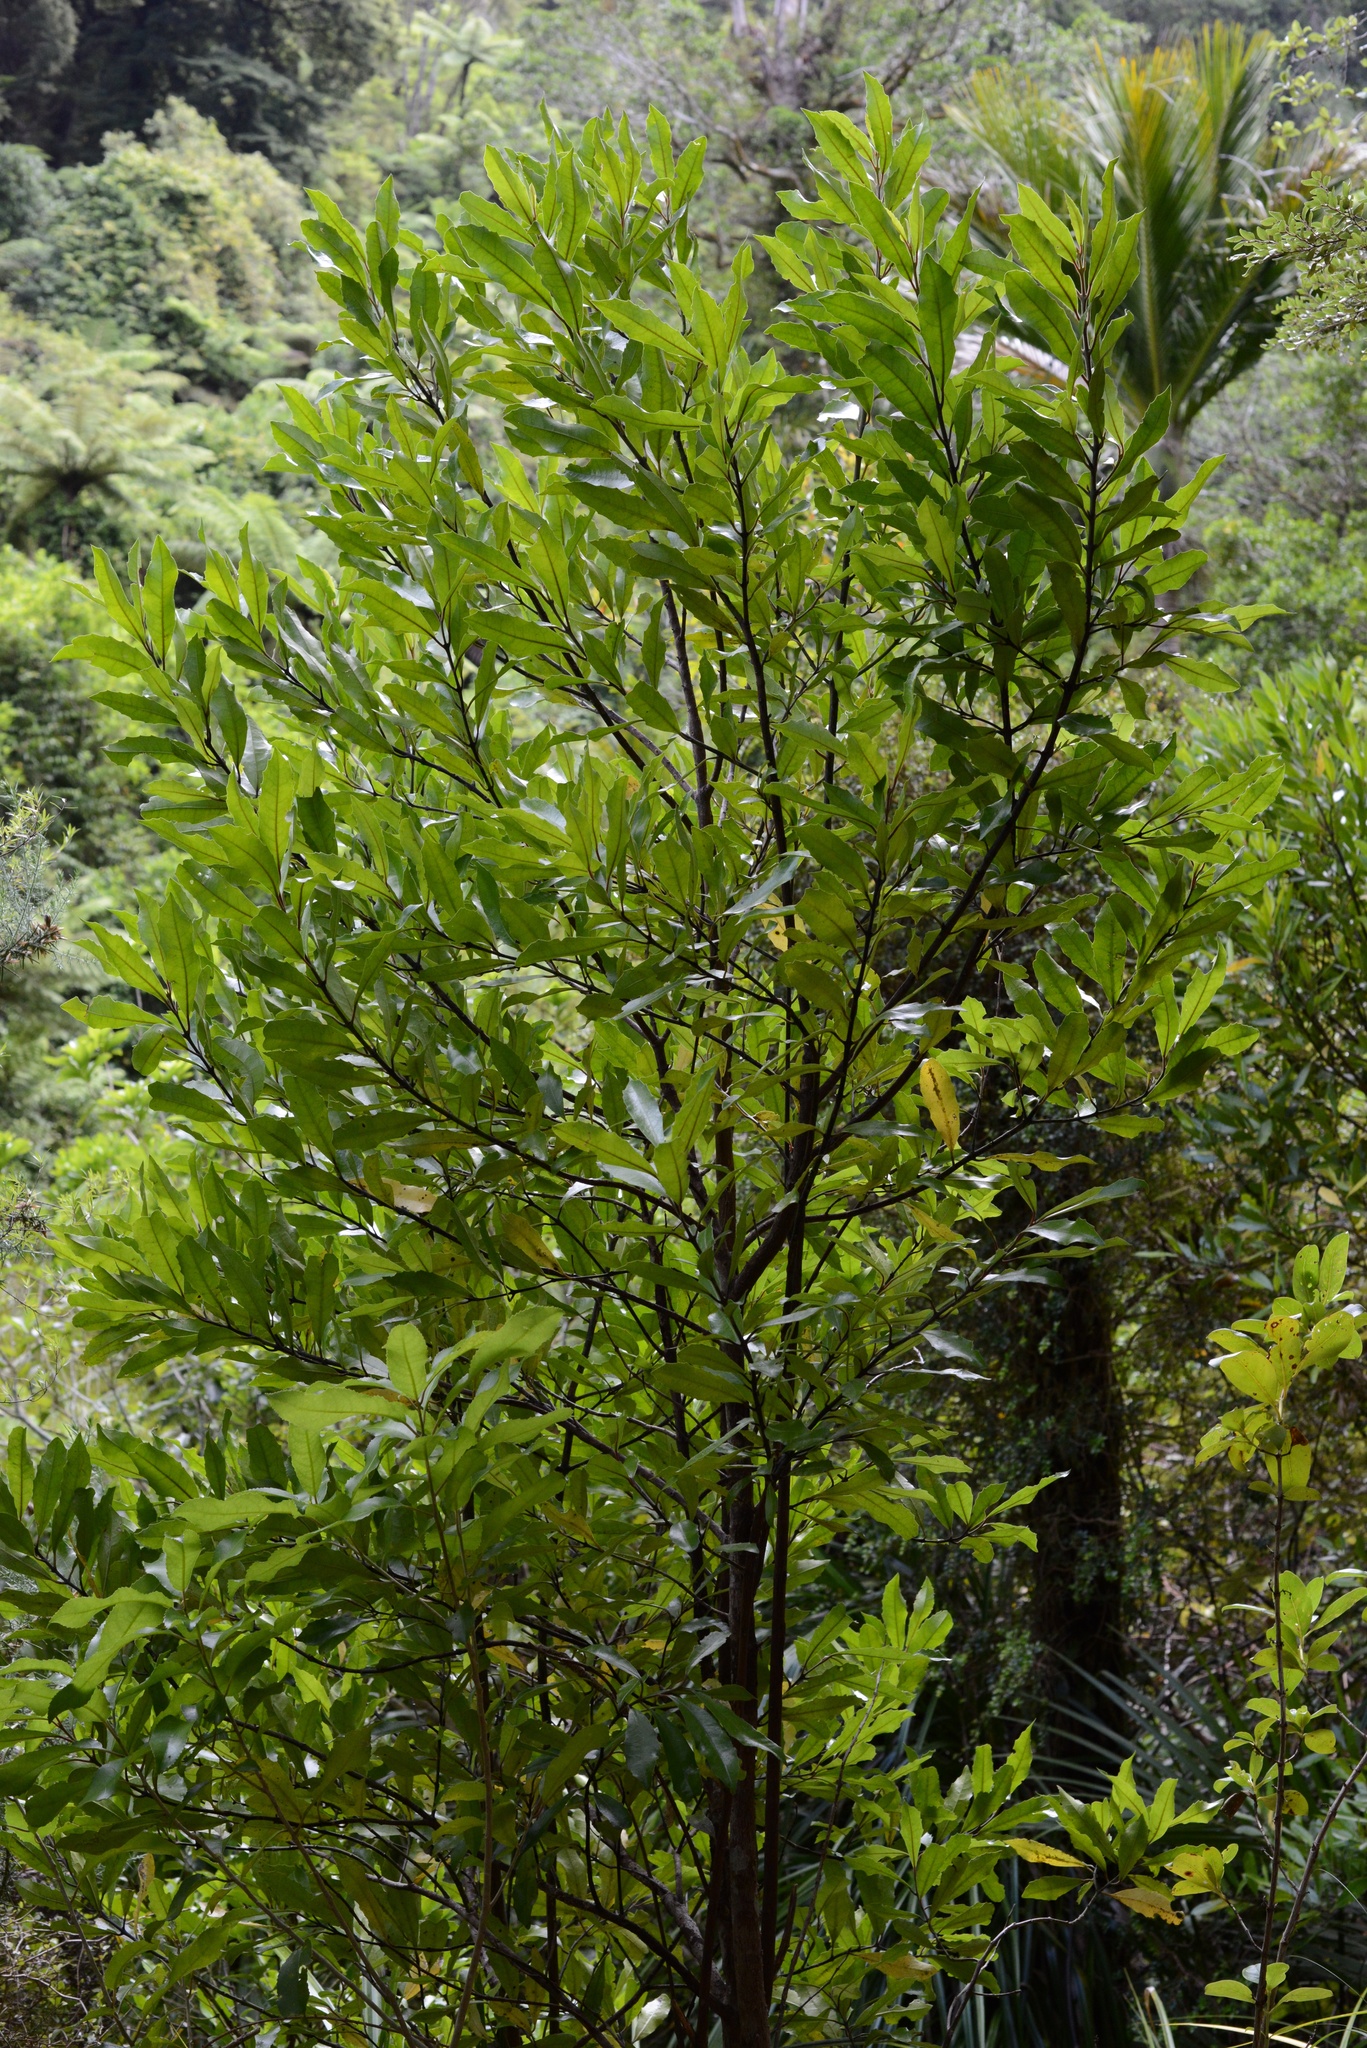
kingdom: Plantae
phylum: Tracheophyta
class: Magnoliopsida
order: Laurales
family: Monimiaceae
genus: Hedycarya
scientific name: Hedycarya arborea
